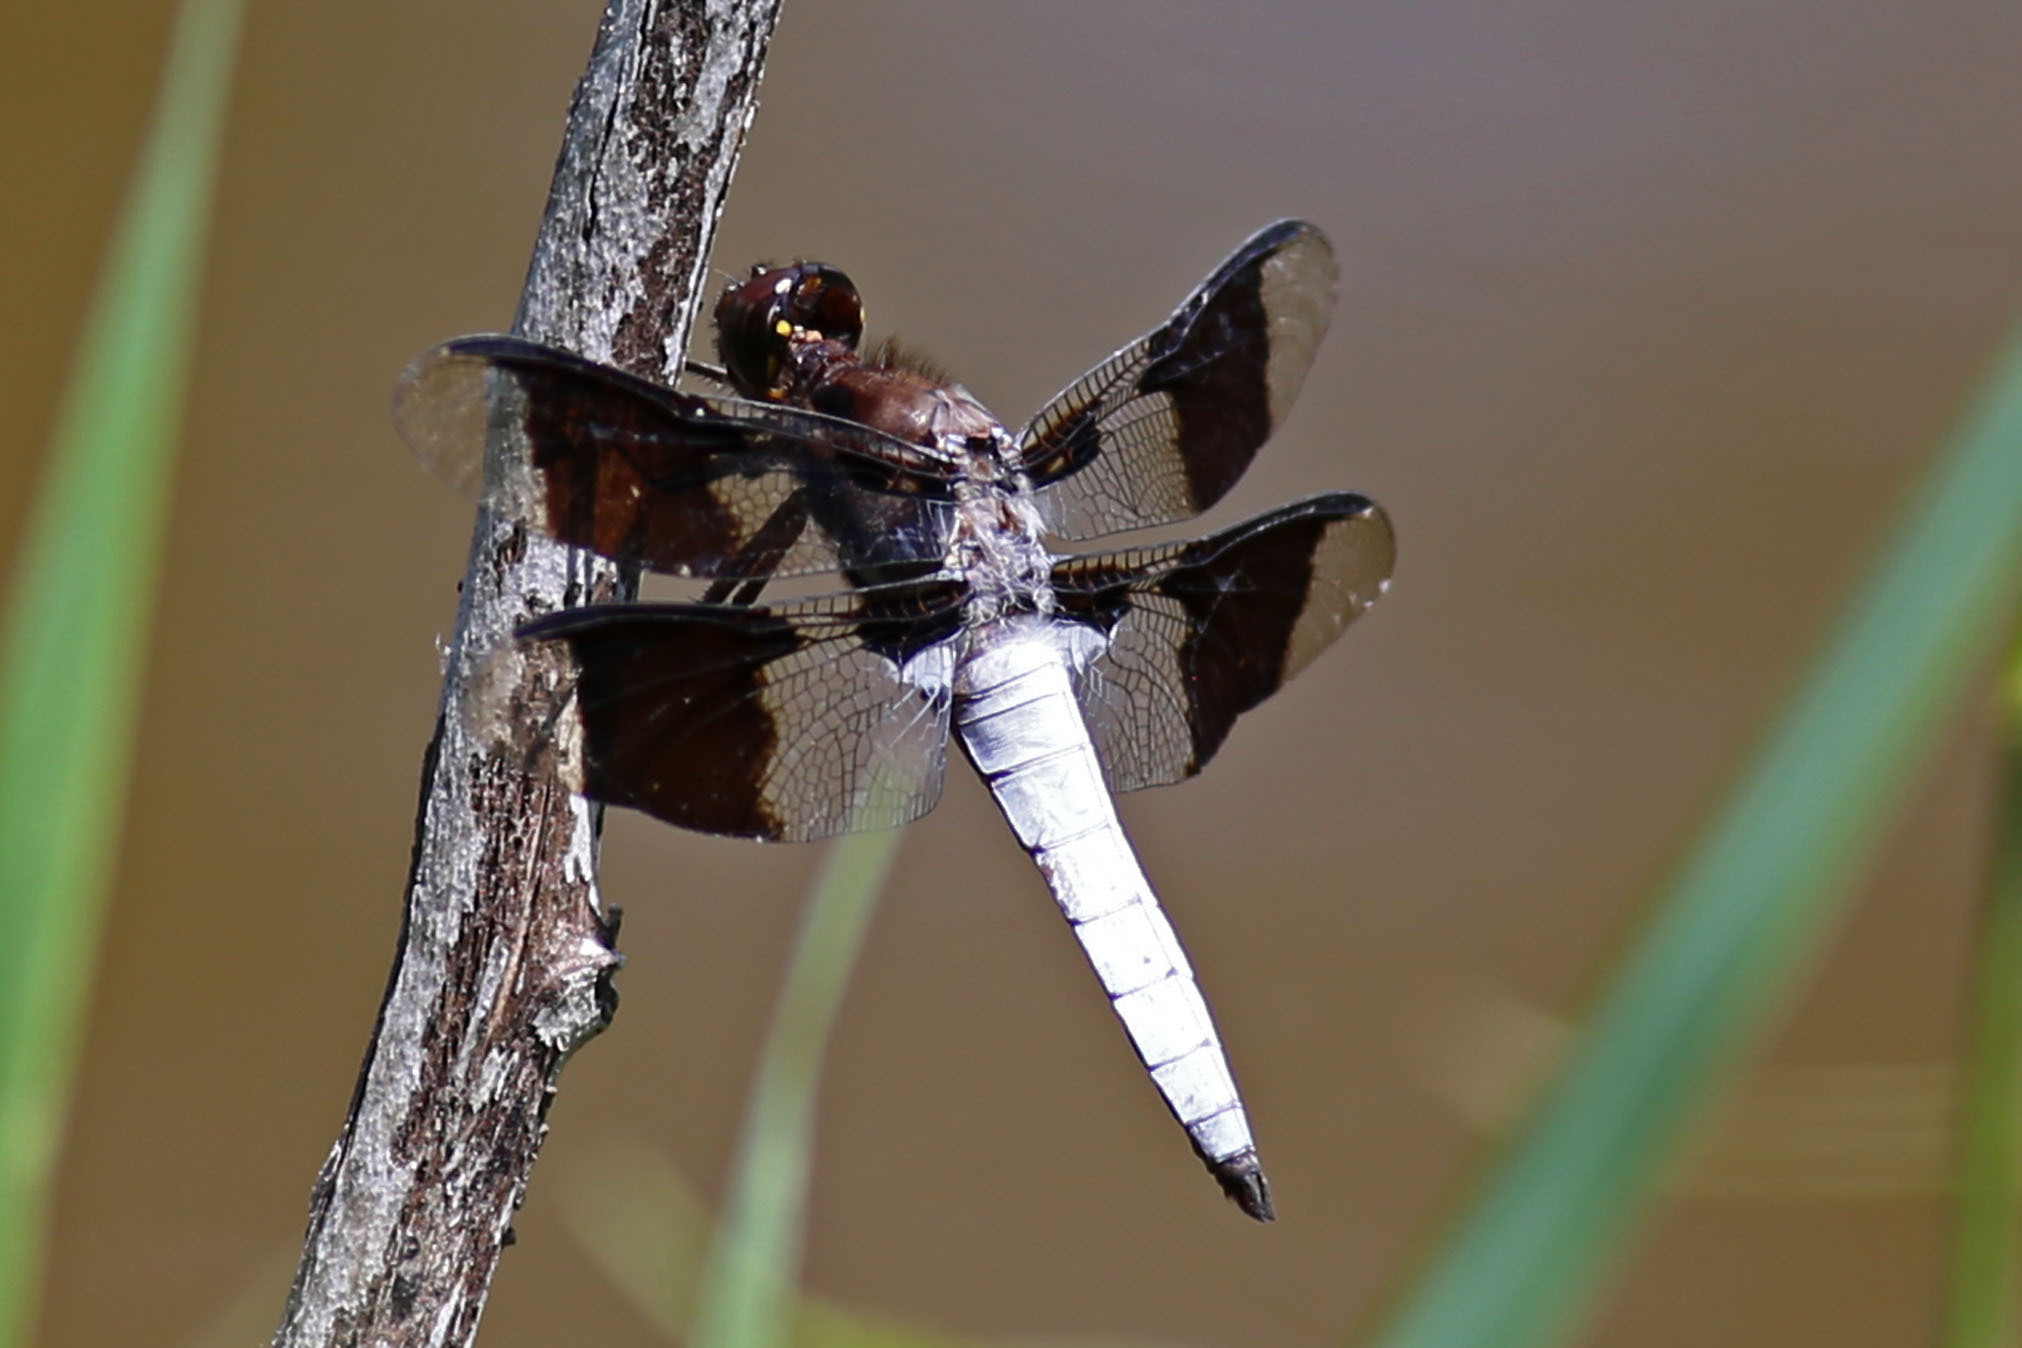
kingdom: Animalia
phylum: Arthropoda
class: Insecta
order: Odonata
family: Libellulidae
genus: Plathemis
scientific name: Plathemis lydia
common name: Common whitetail
